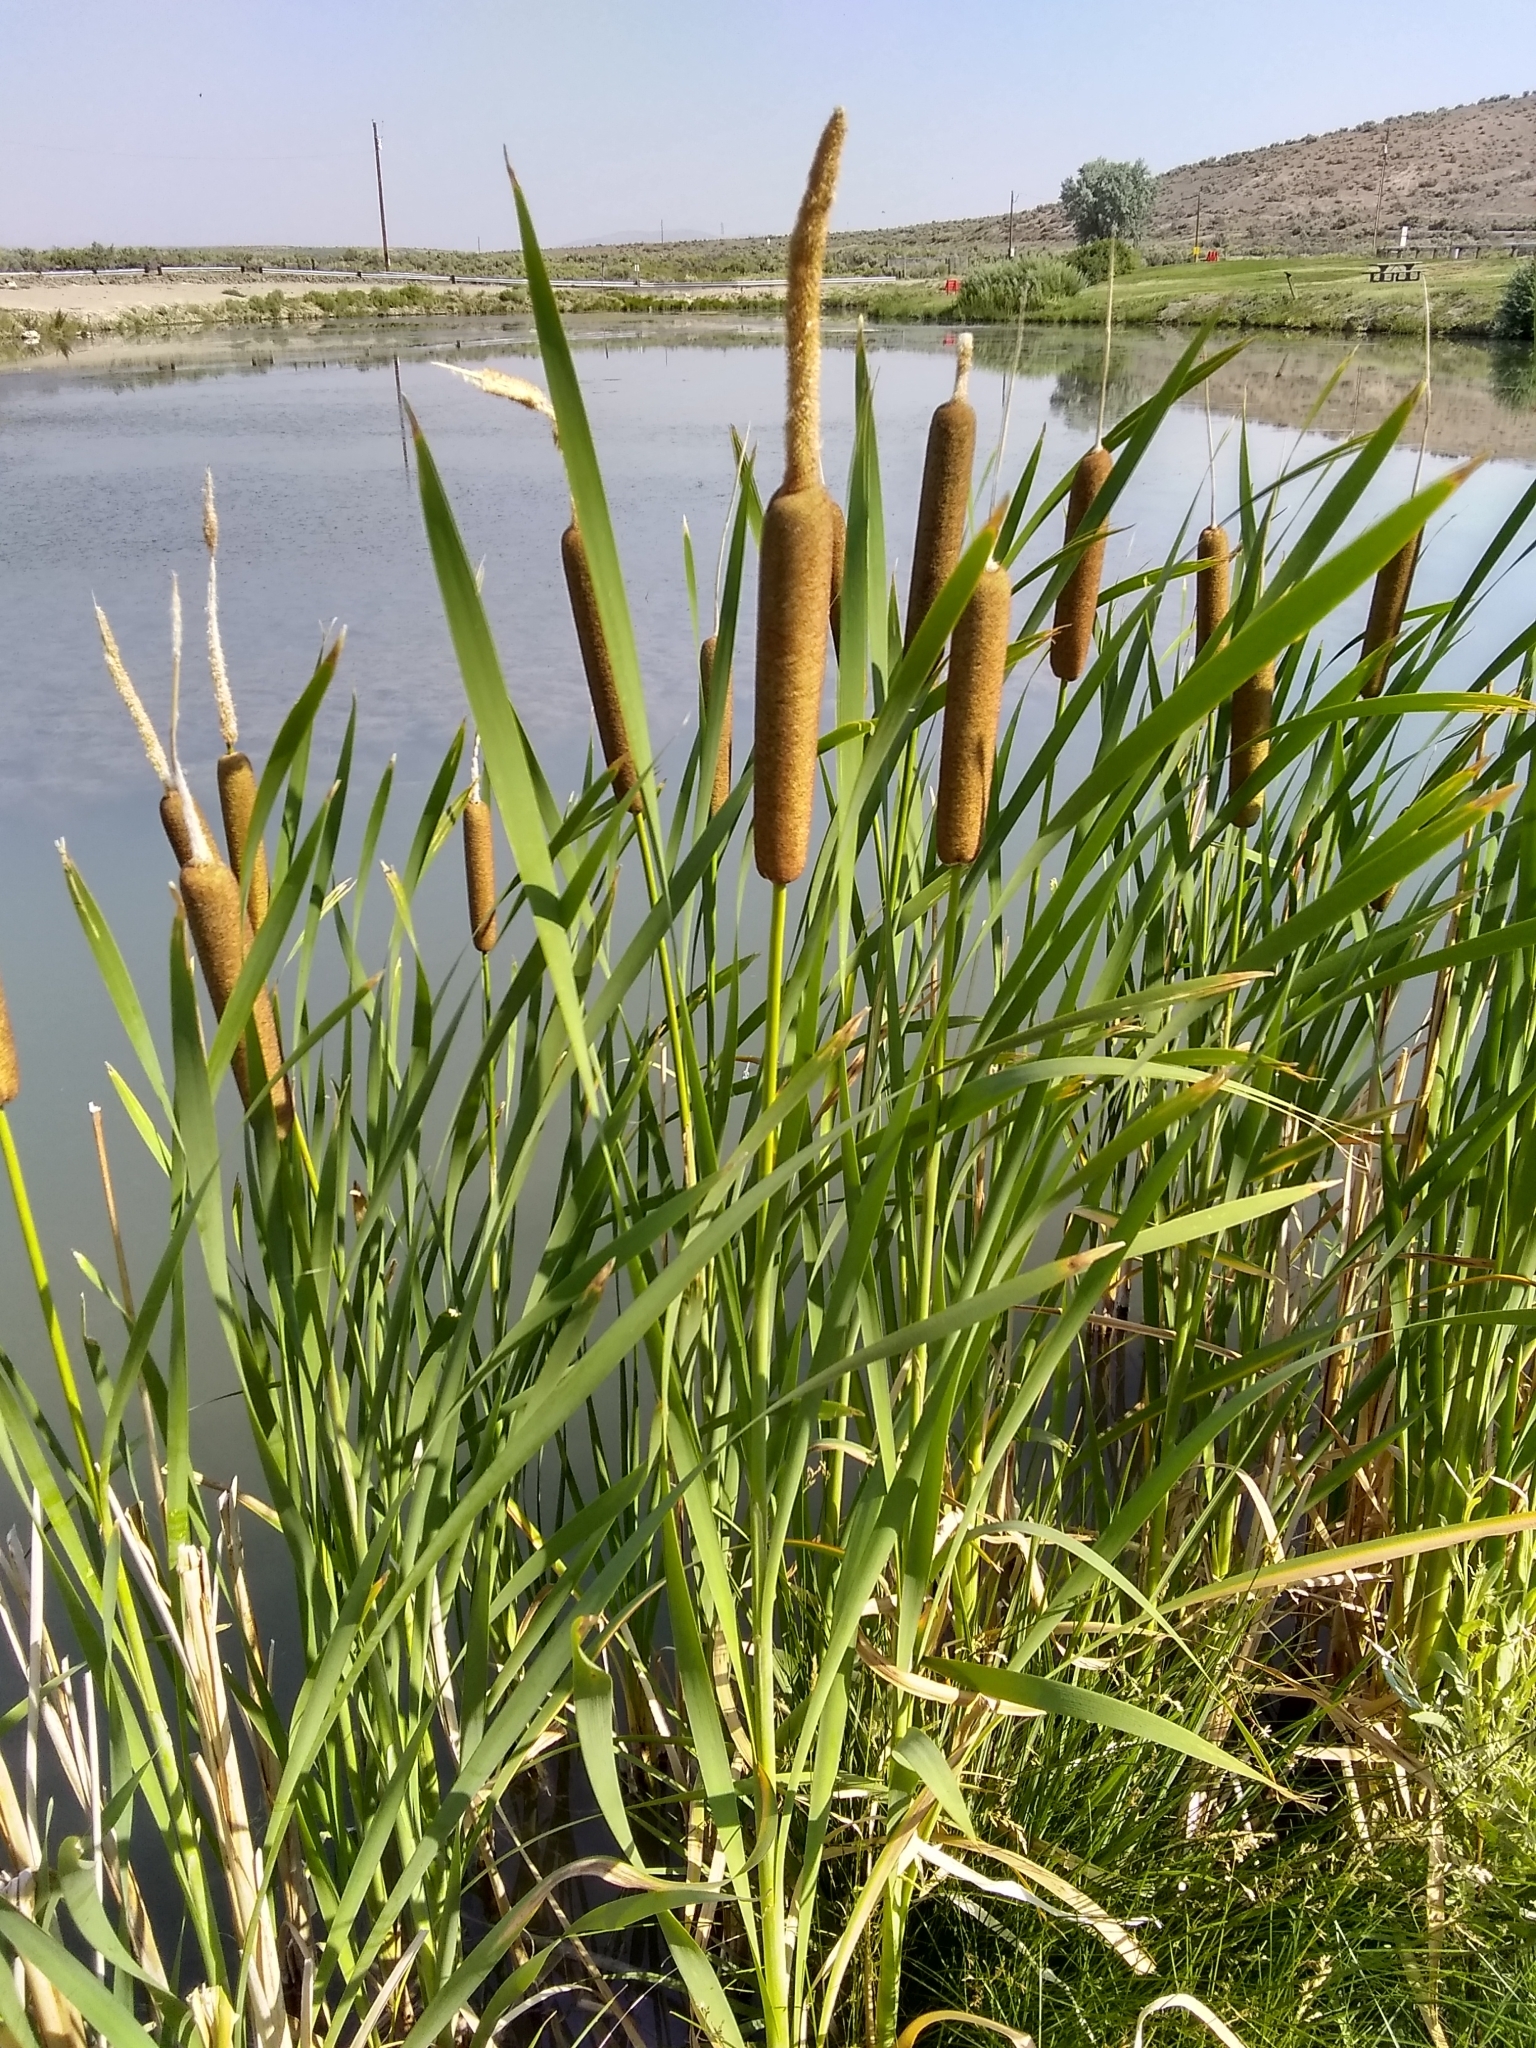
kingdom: Plantae
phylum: Tracheophyta
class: Liliopsida
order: Poales
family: Typhaceae
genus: Typha
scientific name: Typha latifolia
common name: Broadleaf cattail
